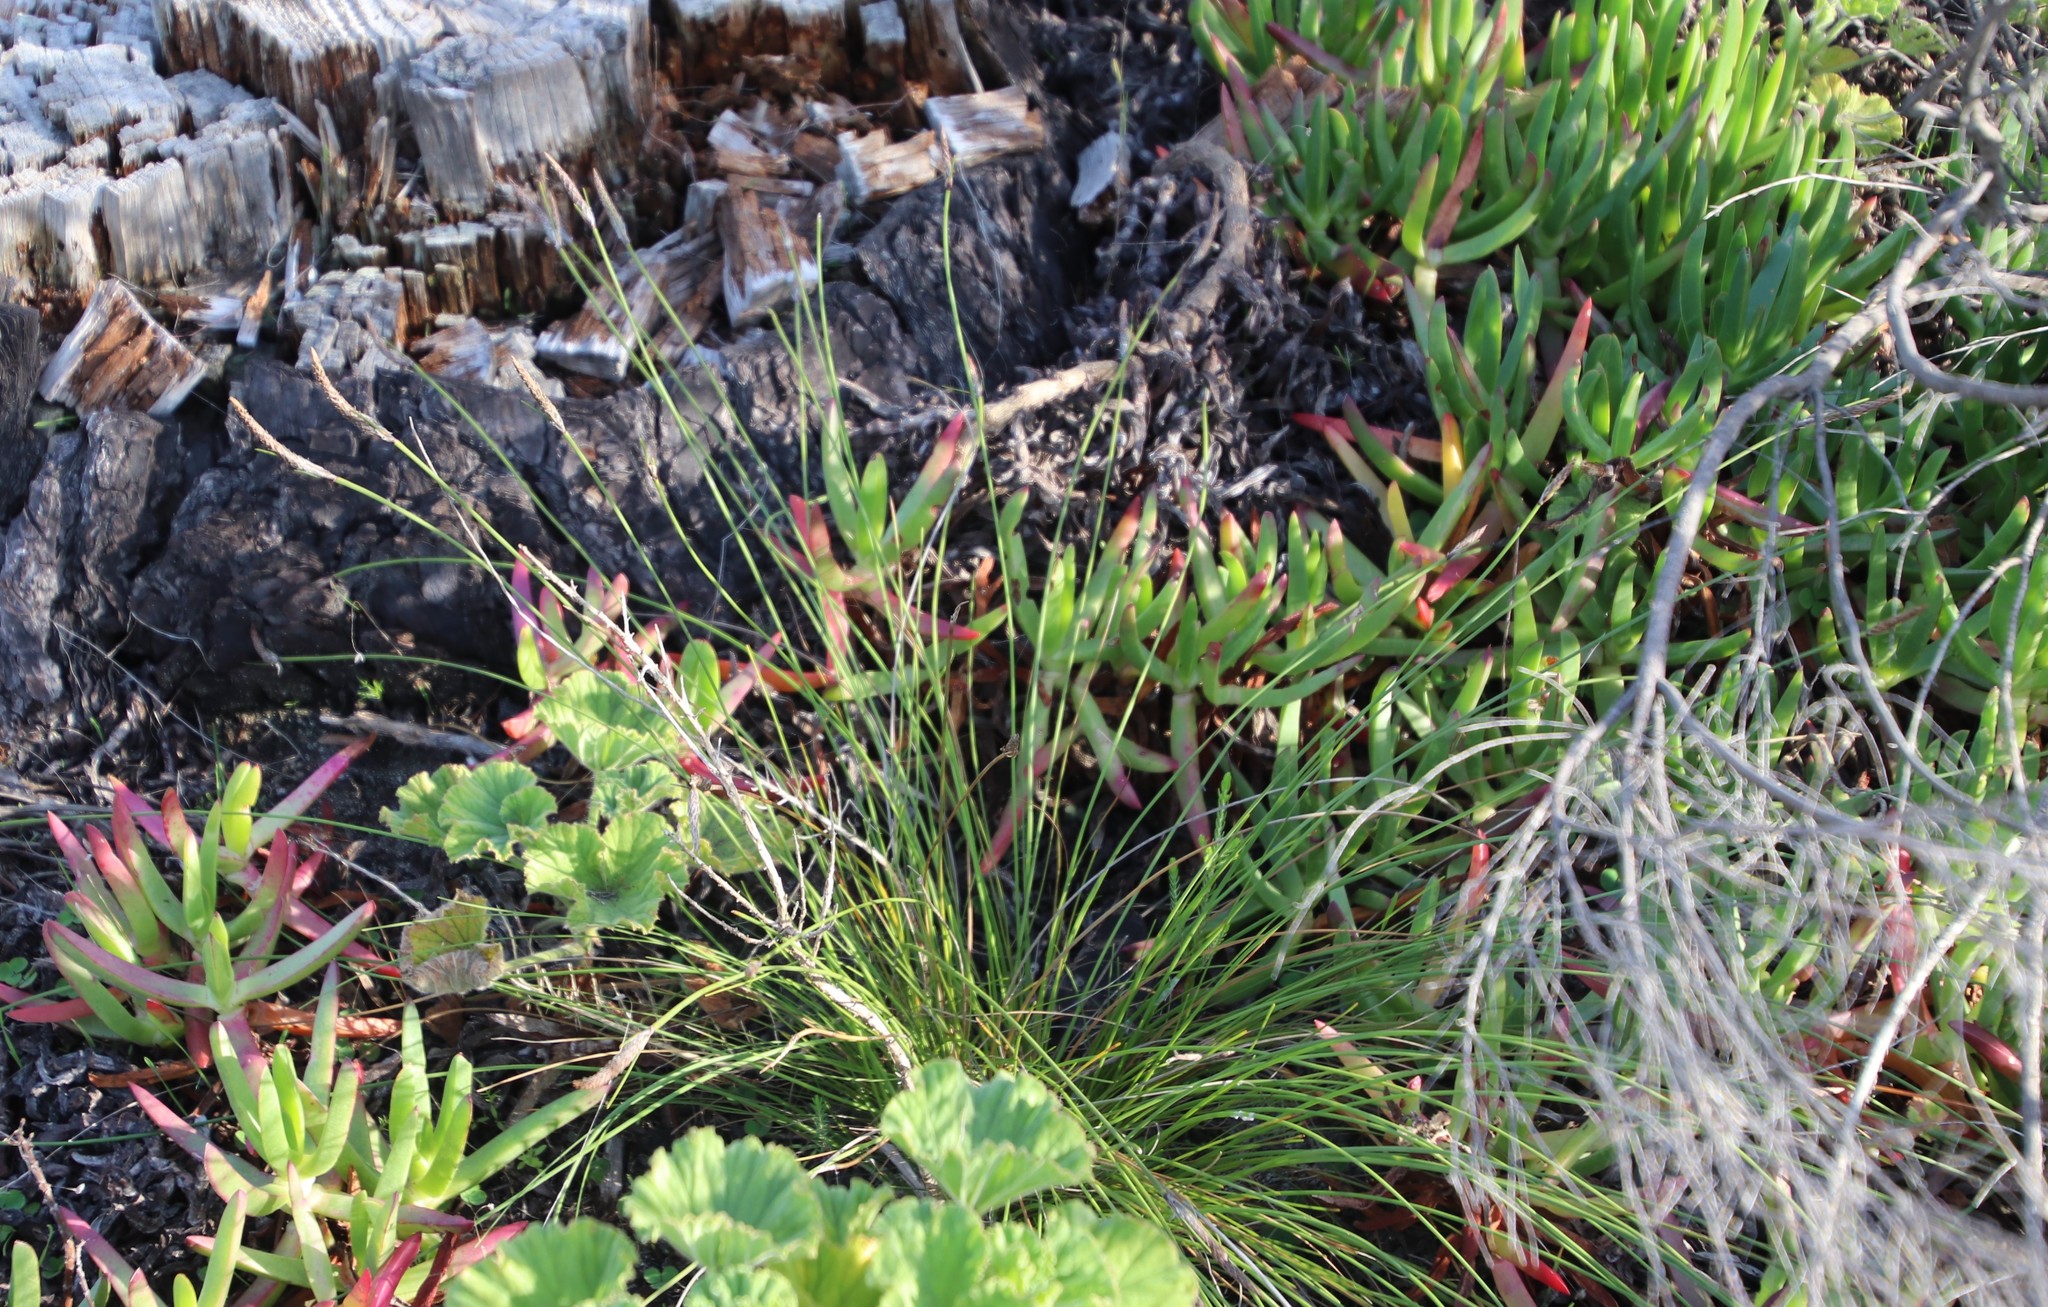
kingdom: Plantae
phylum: Tracheophyta
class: Liliopsida
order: Poales
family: Cyperaceae
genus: Ficinia
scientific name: Ficinia deusta
